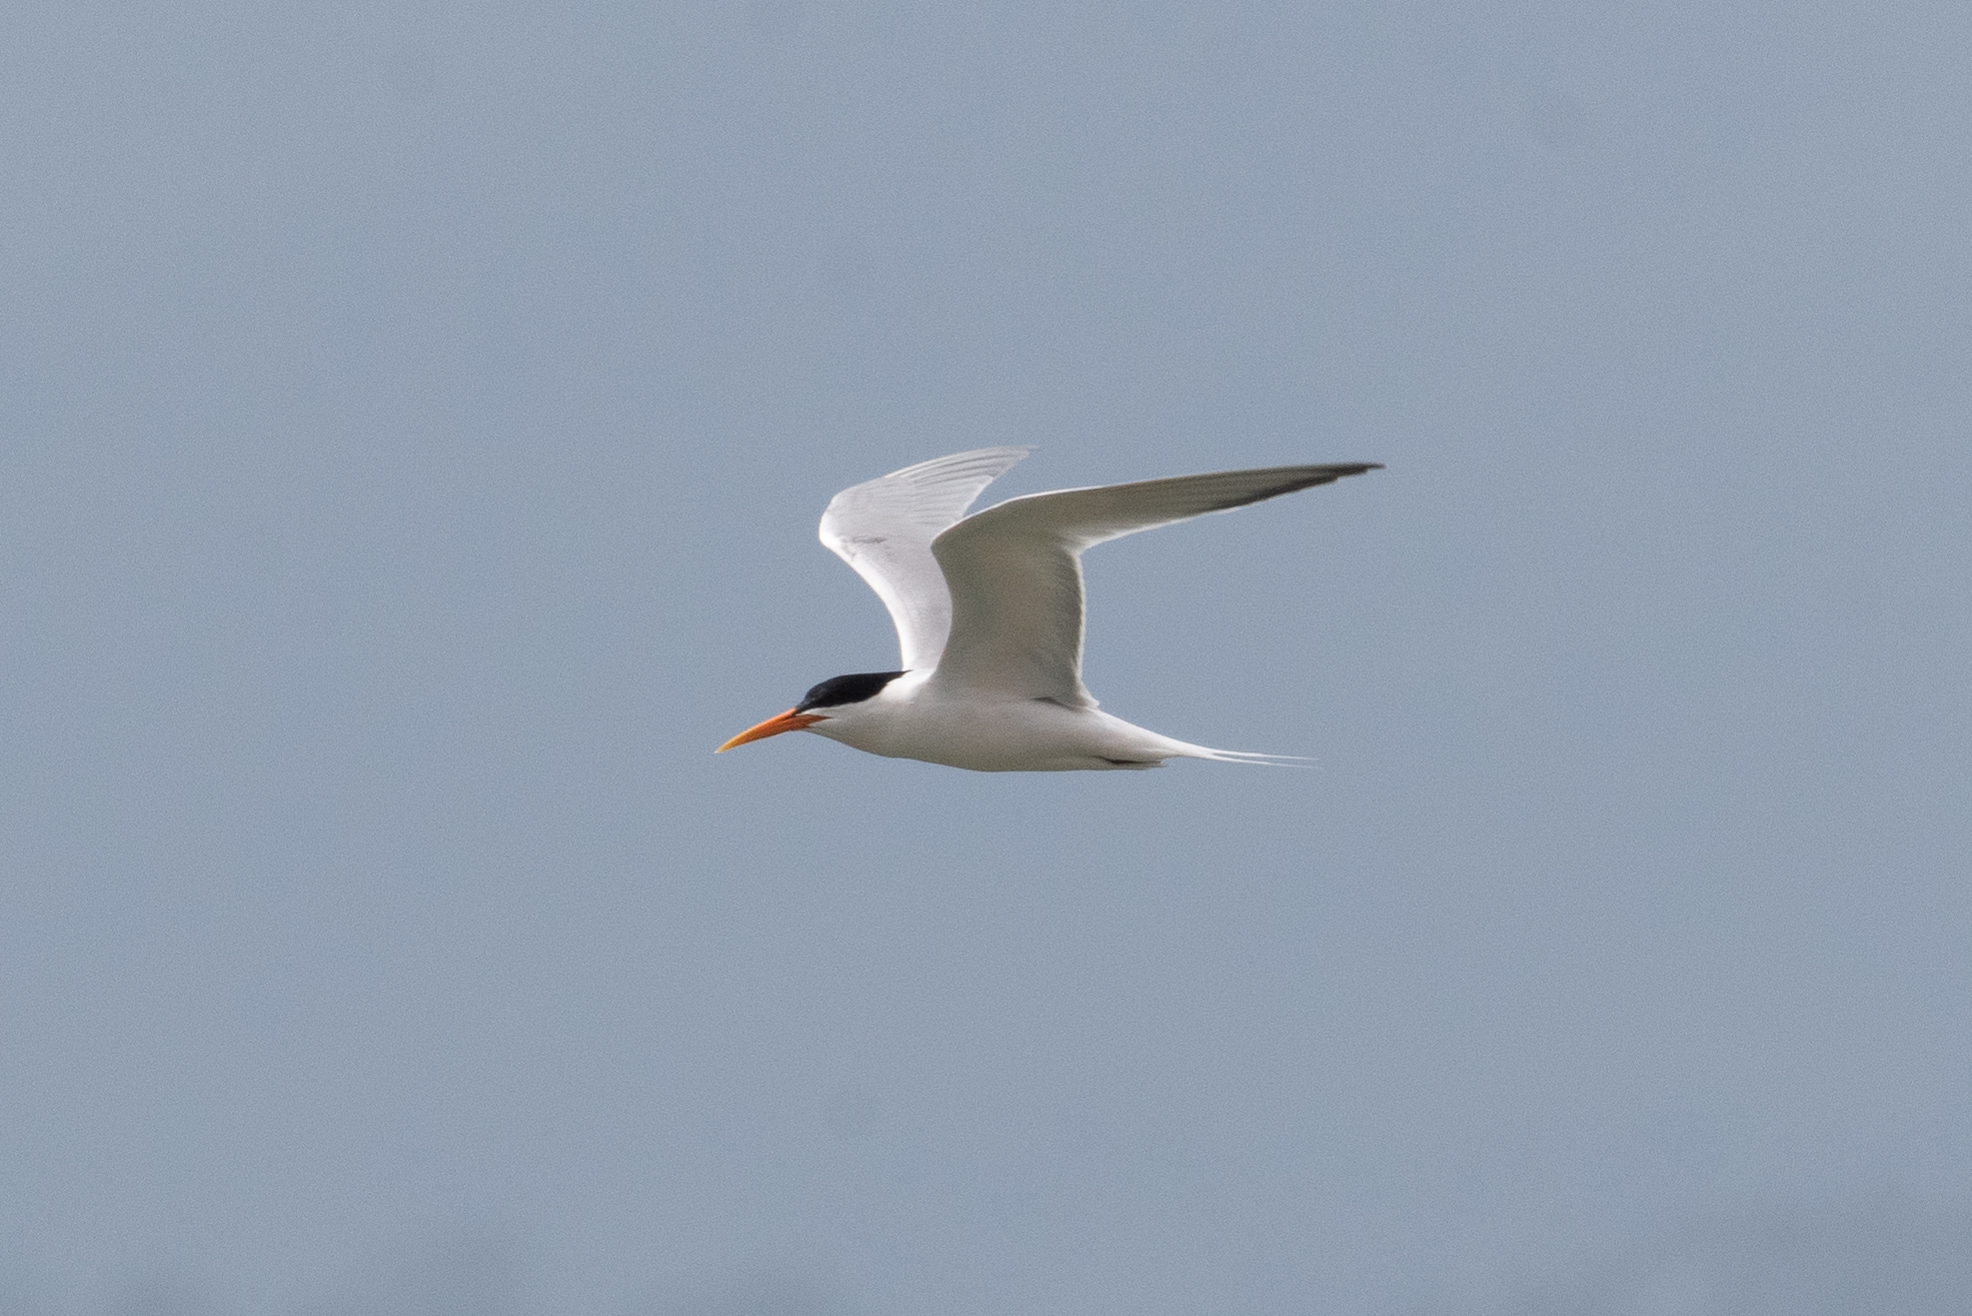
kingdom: Animalia
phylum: Chordata
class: Aves
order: Charadriiformes
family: Laridae
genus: Thalasseus
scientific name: Thalasseus elegans
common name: Elegant tern
